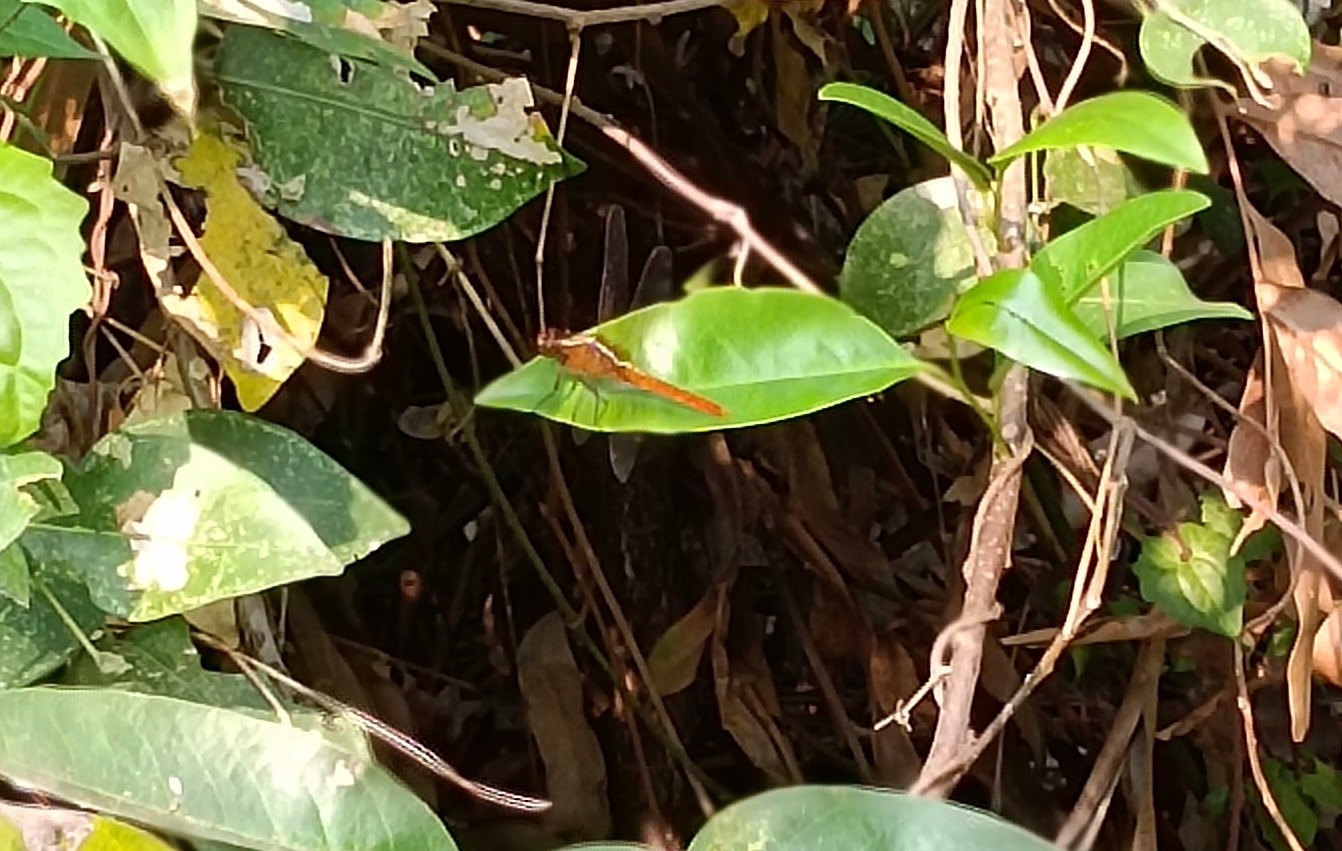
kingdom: Animalia
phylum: Arthropoda
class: Insecta
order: Odonata
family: Libellulidae
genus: Rhodothemis
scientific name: Rhodothemis rufa
